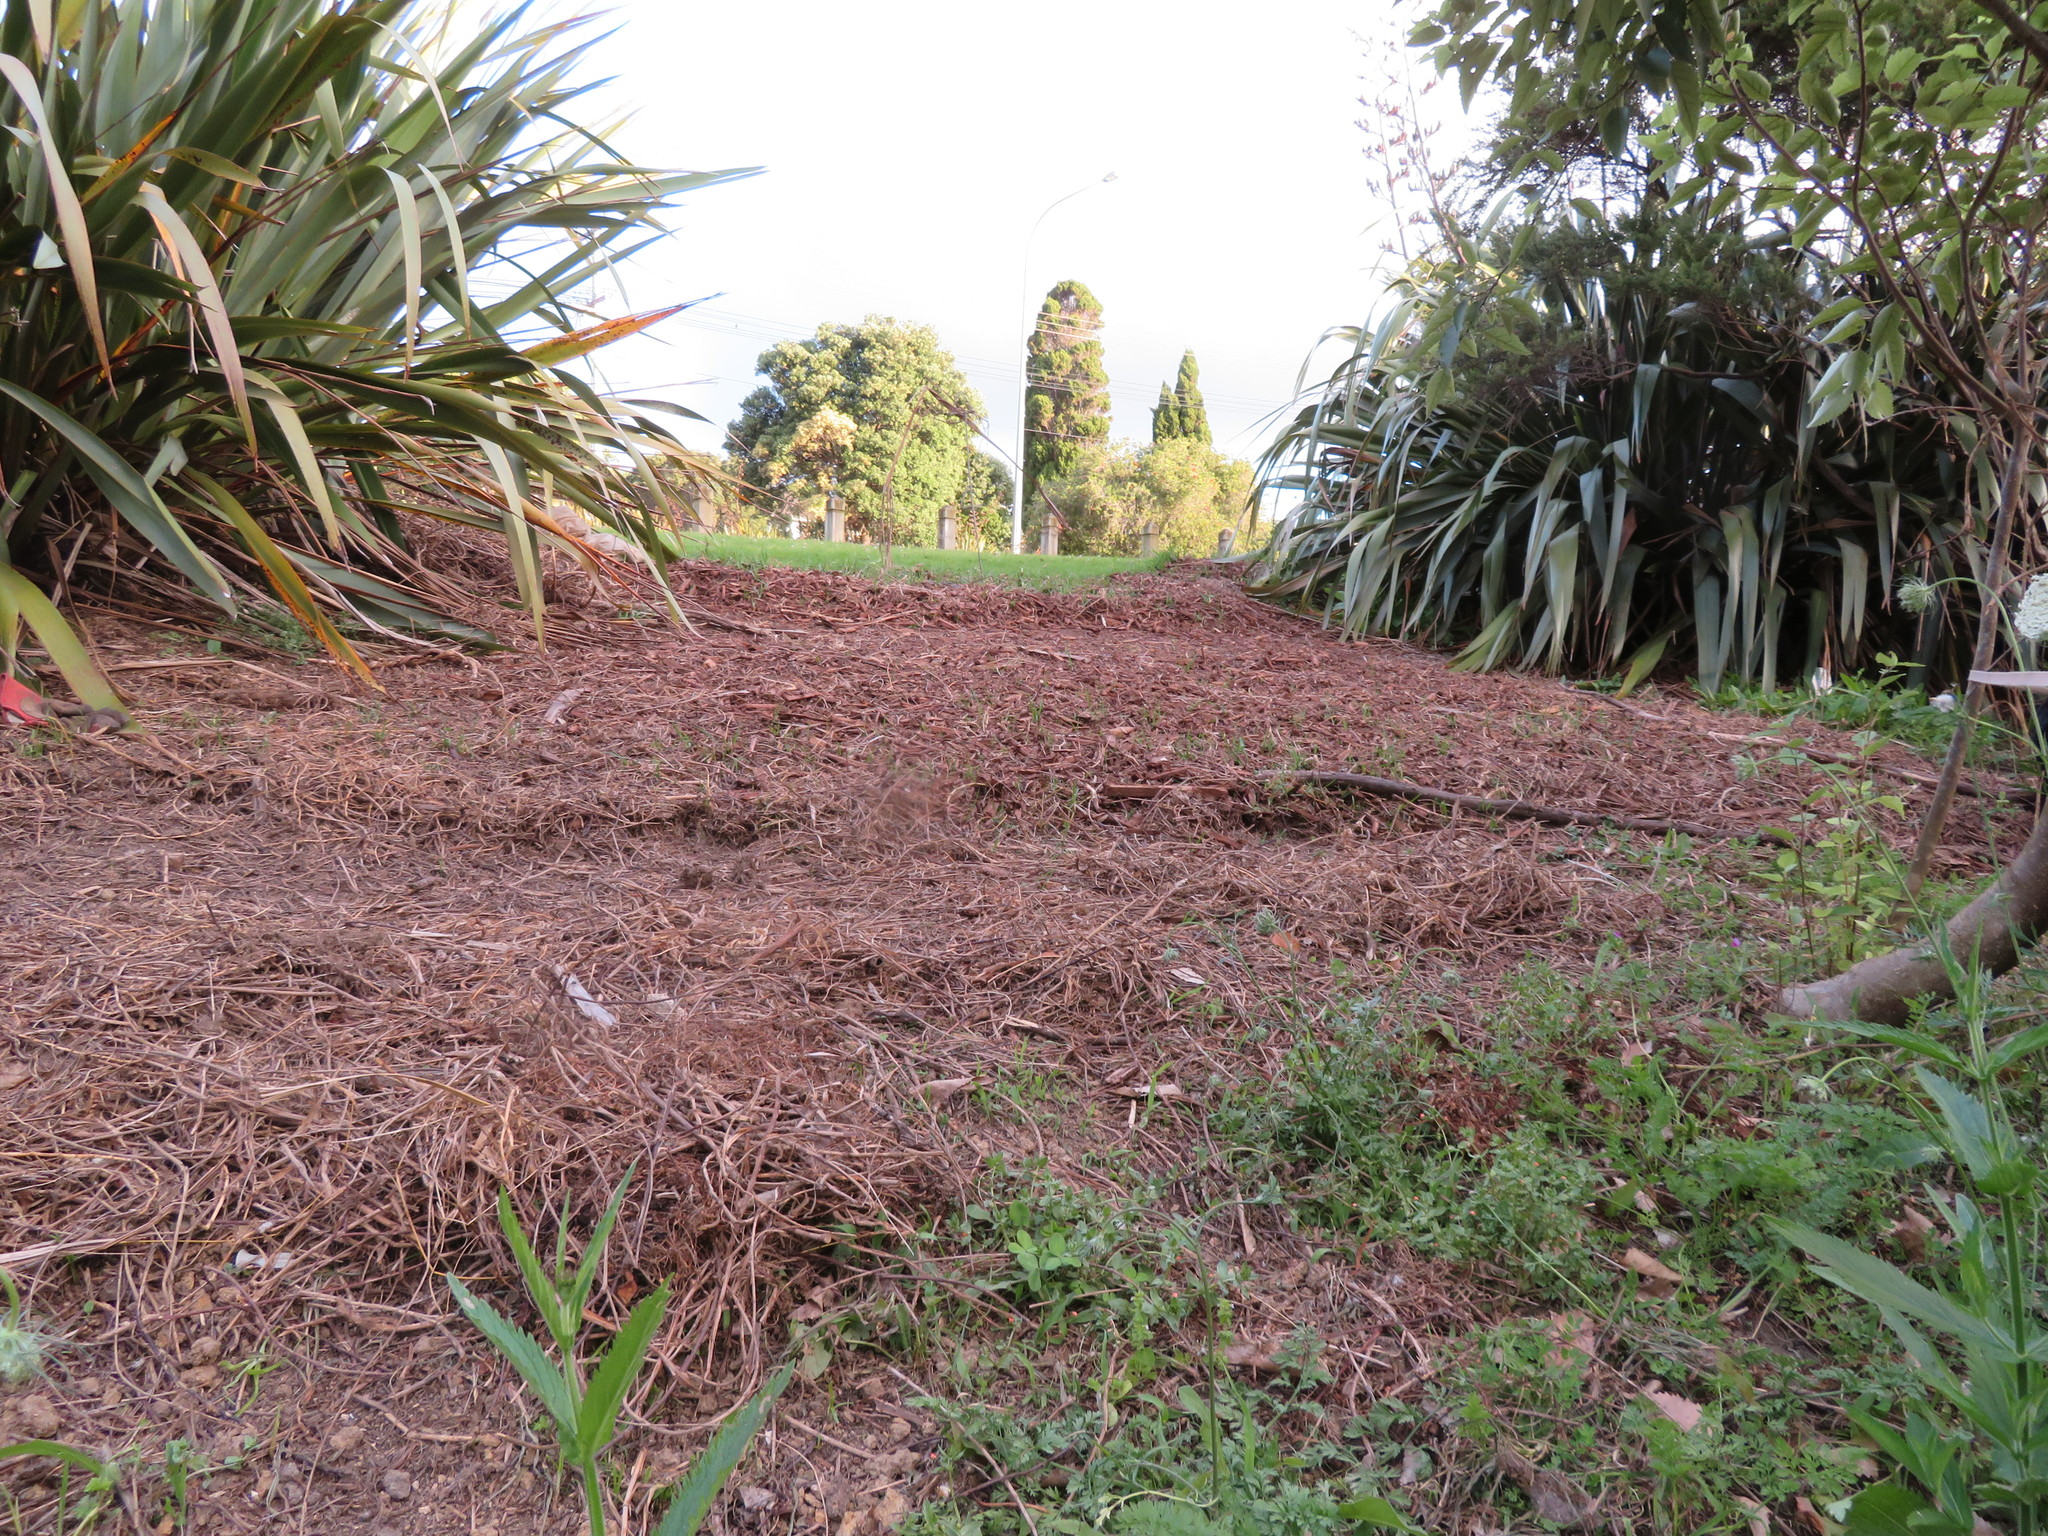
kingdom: Plantae
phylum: Tracheophyta
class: Magnoliopsida
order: Ericales
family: Primulaceae
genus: Lysimachia
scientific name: Lysimachia arvensis
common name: Scarlet pimpernel
